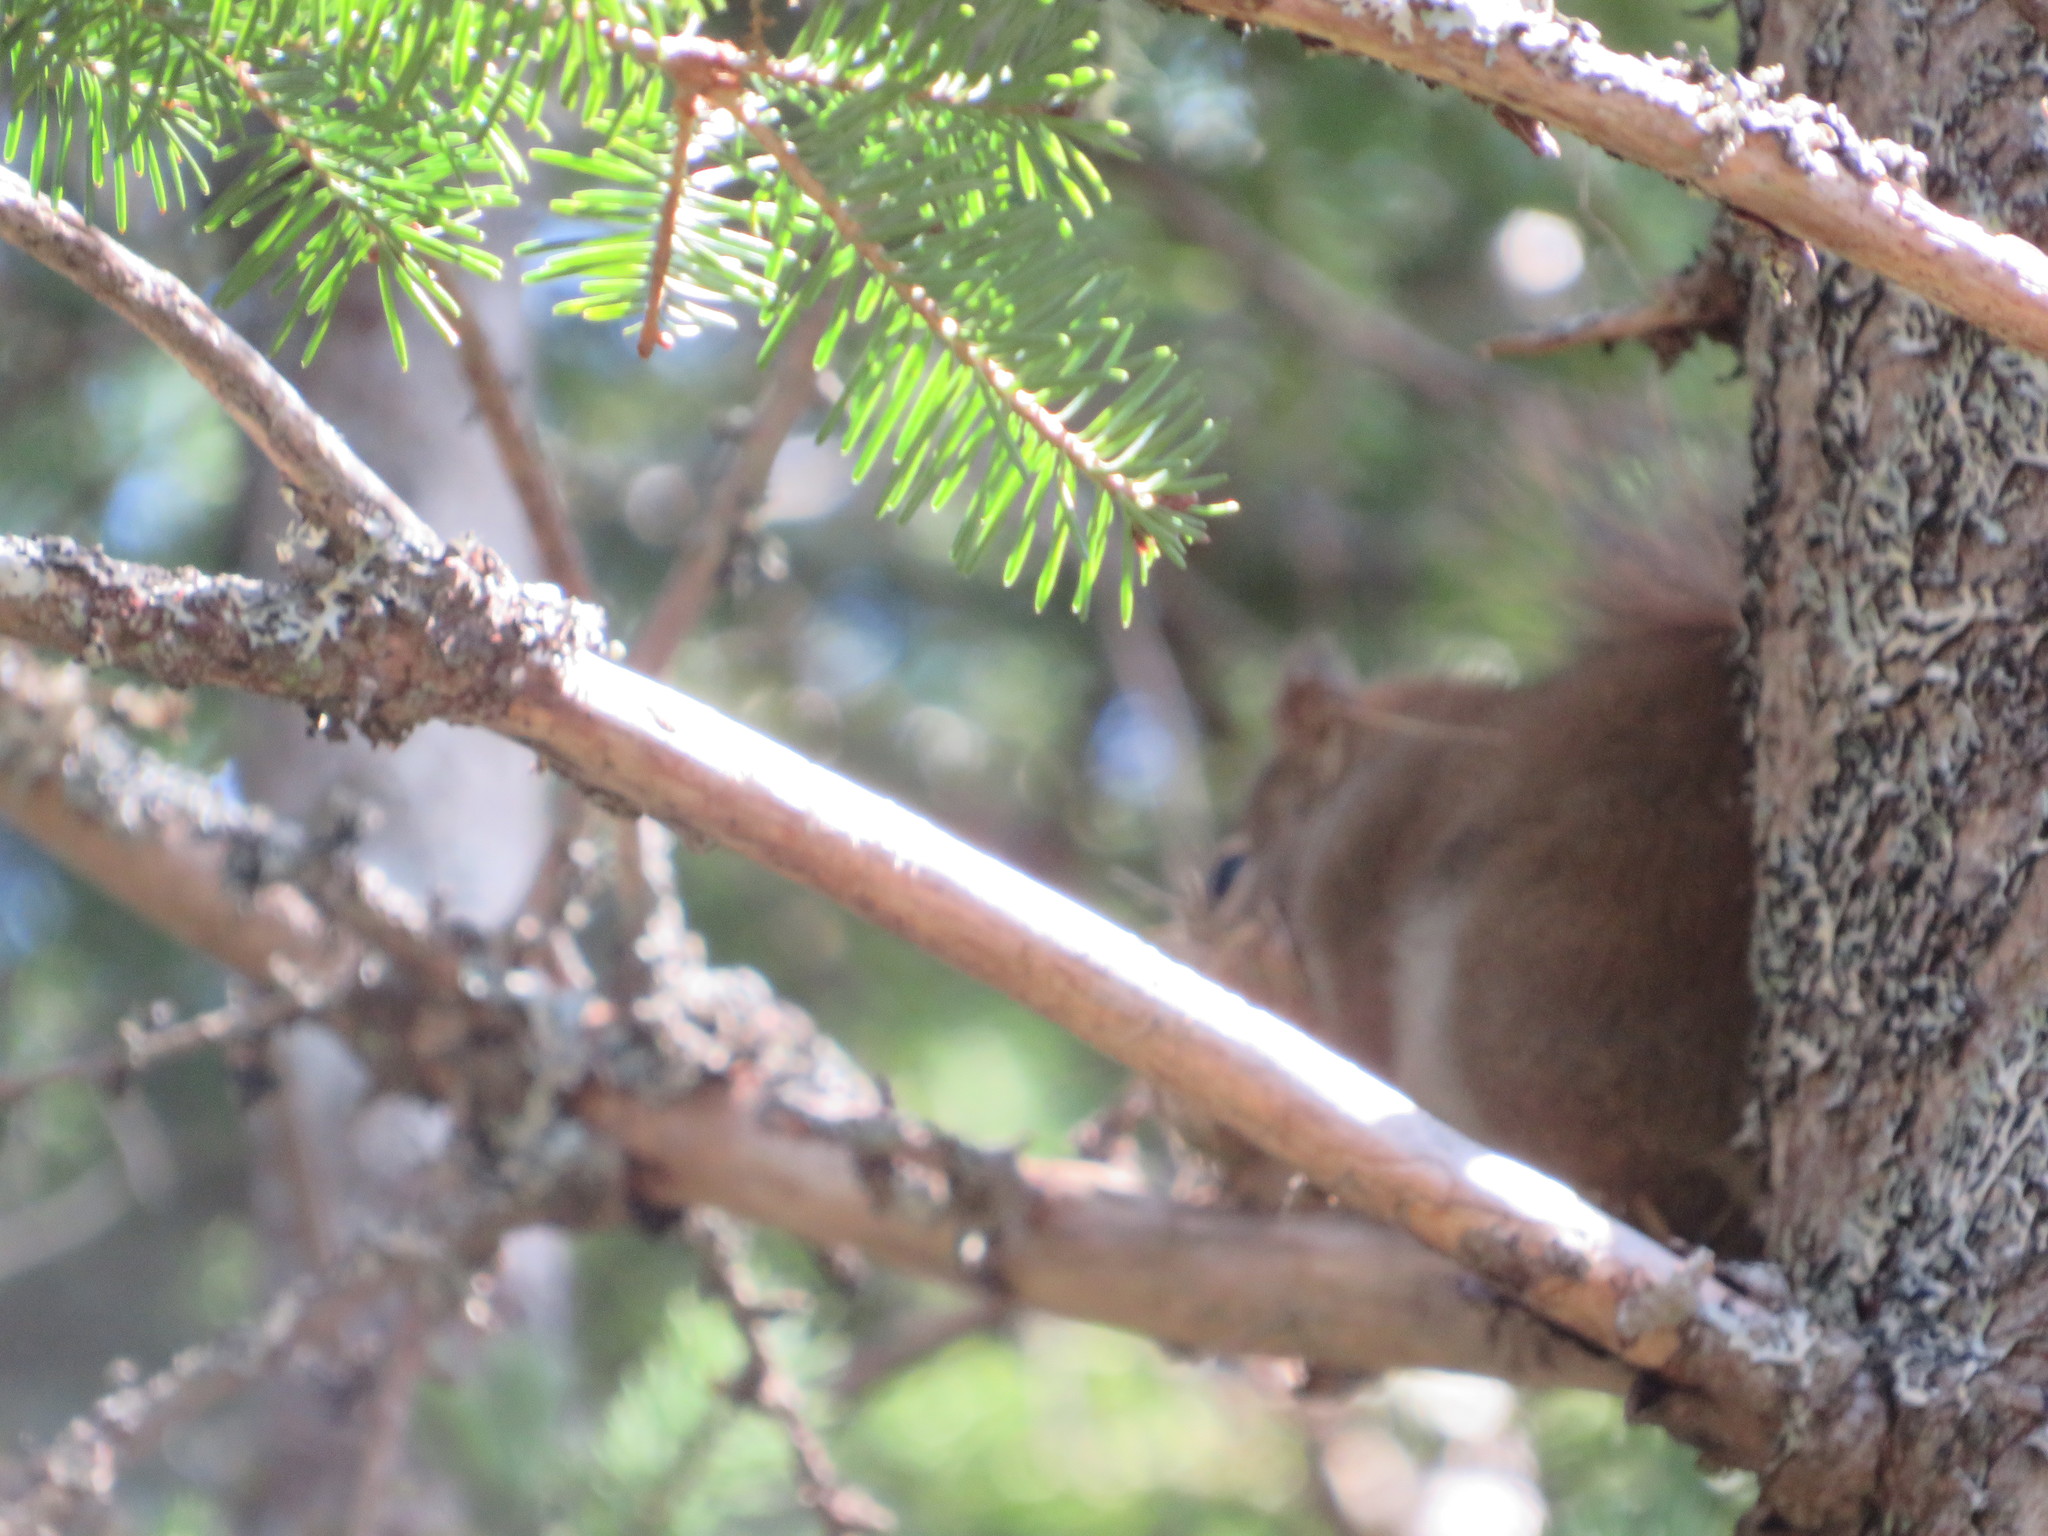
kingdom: Animalia
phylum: Chordata
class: Mammalia
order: Rodentia
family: Sciuridae
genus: Tamiasciurus
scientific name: Tamiasciurus hudsonicus
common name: Red squirrel
